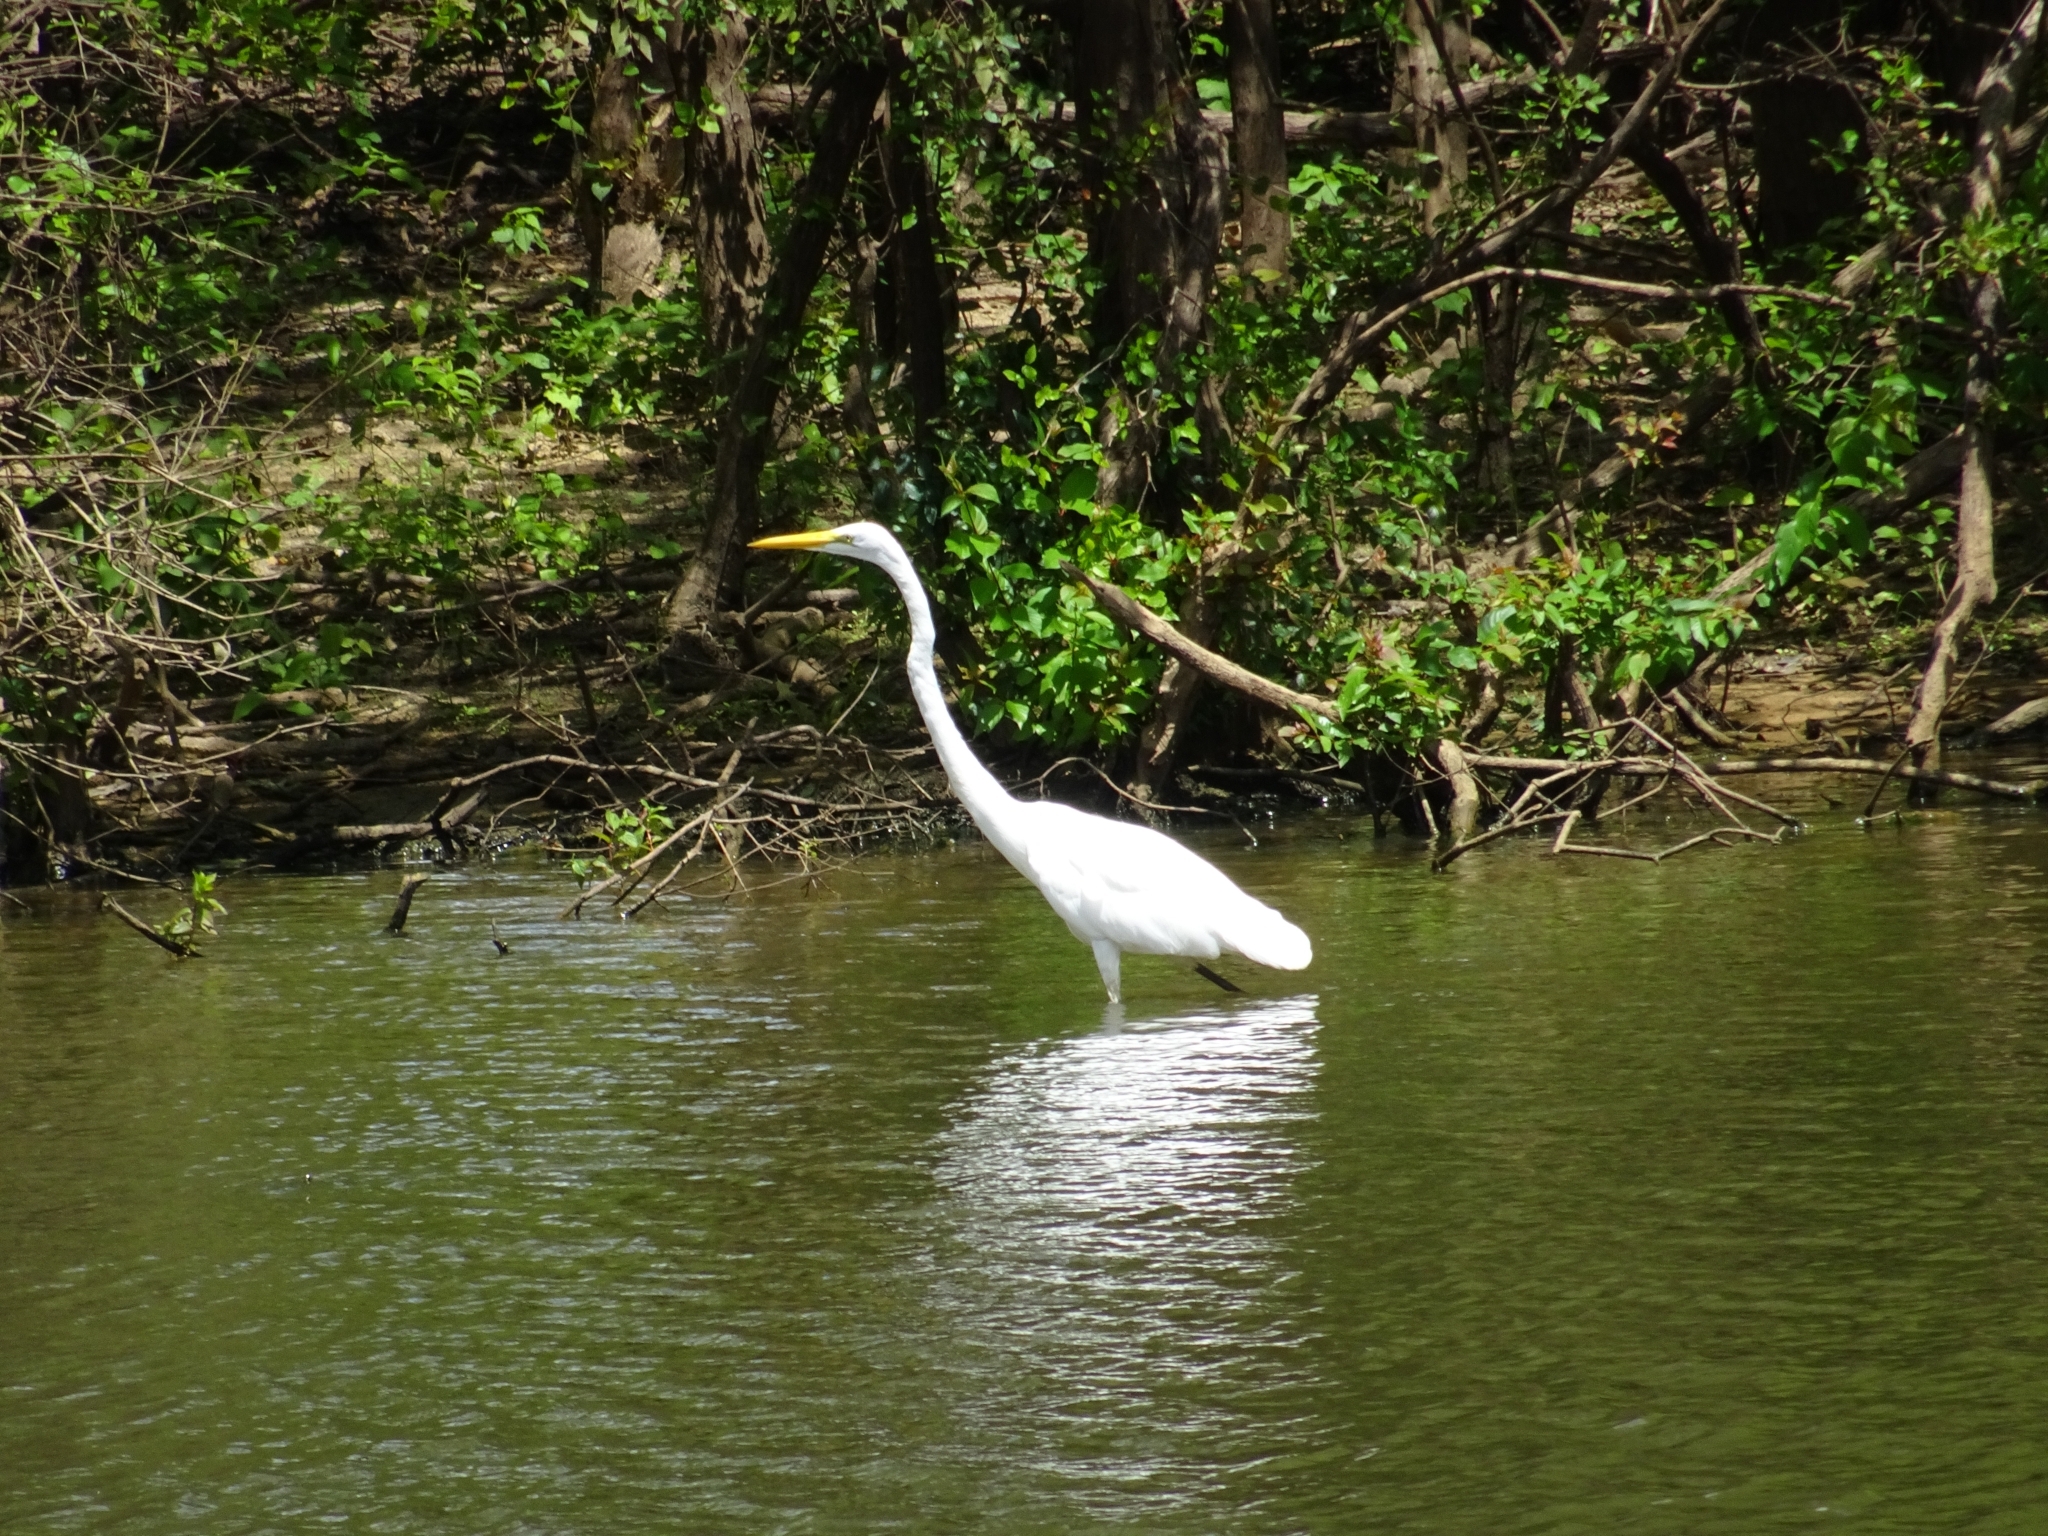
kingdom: Animalia
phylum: Chordata
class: Aves
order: Pelecaniformes
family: Ardeidae
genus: Ardea
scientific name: Ardea alba
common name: Great egret
